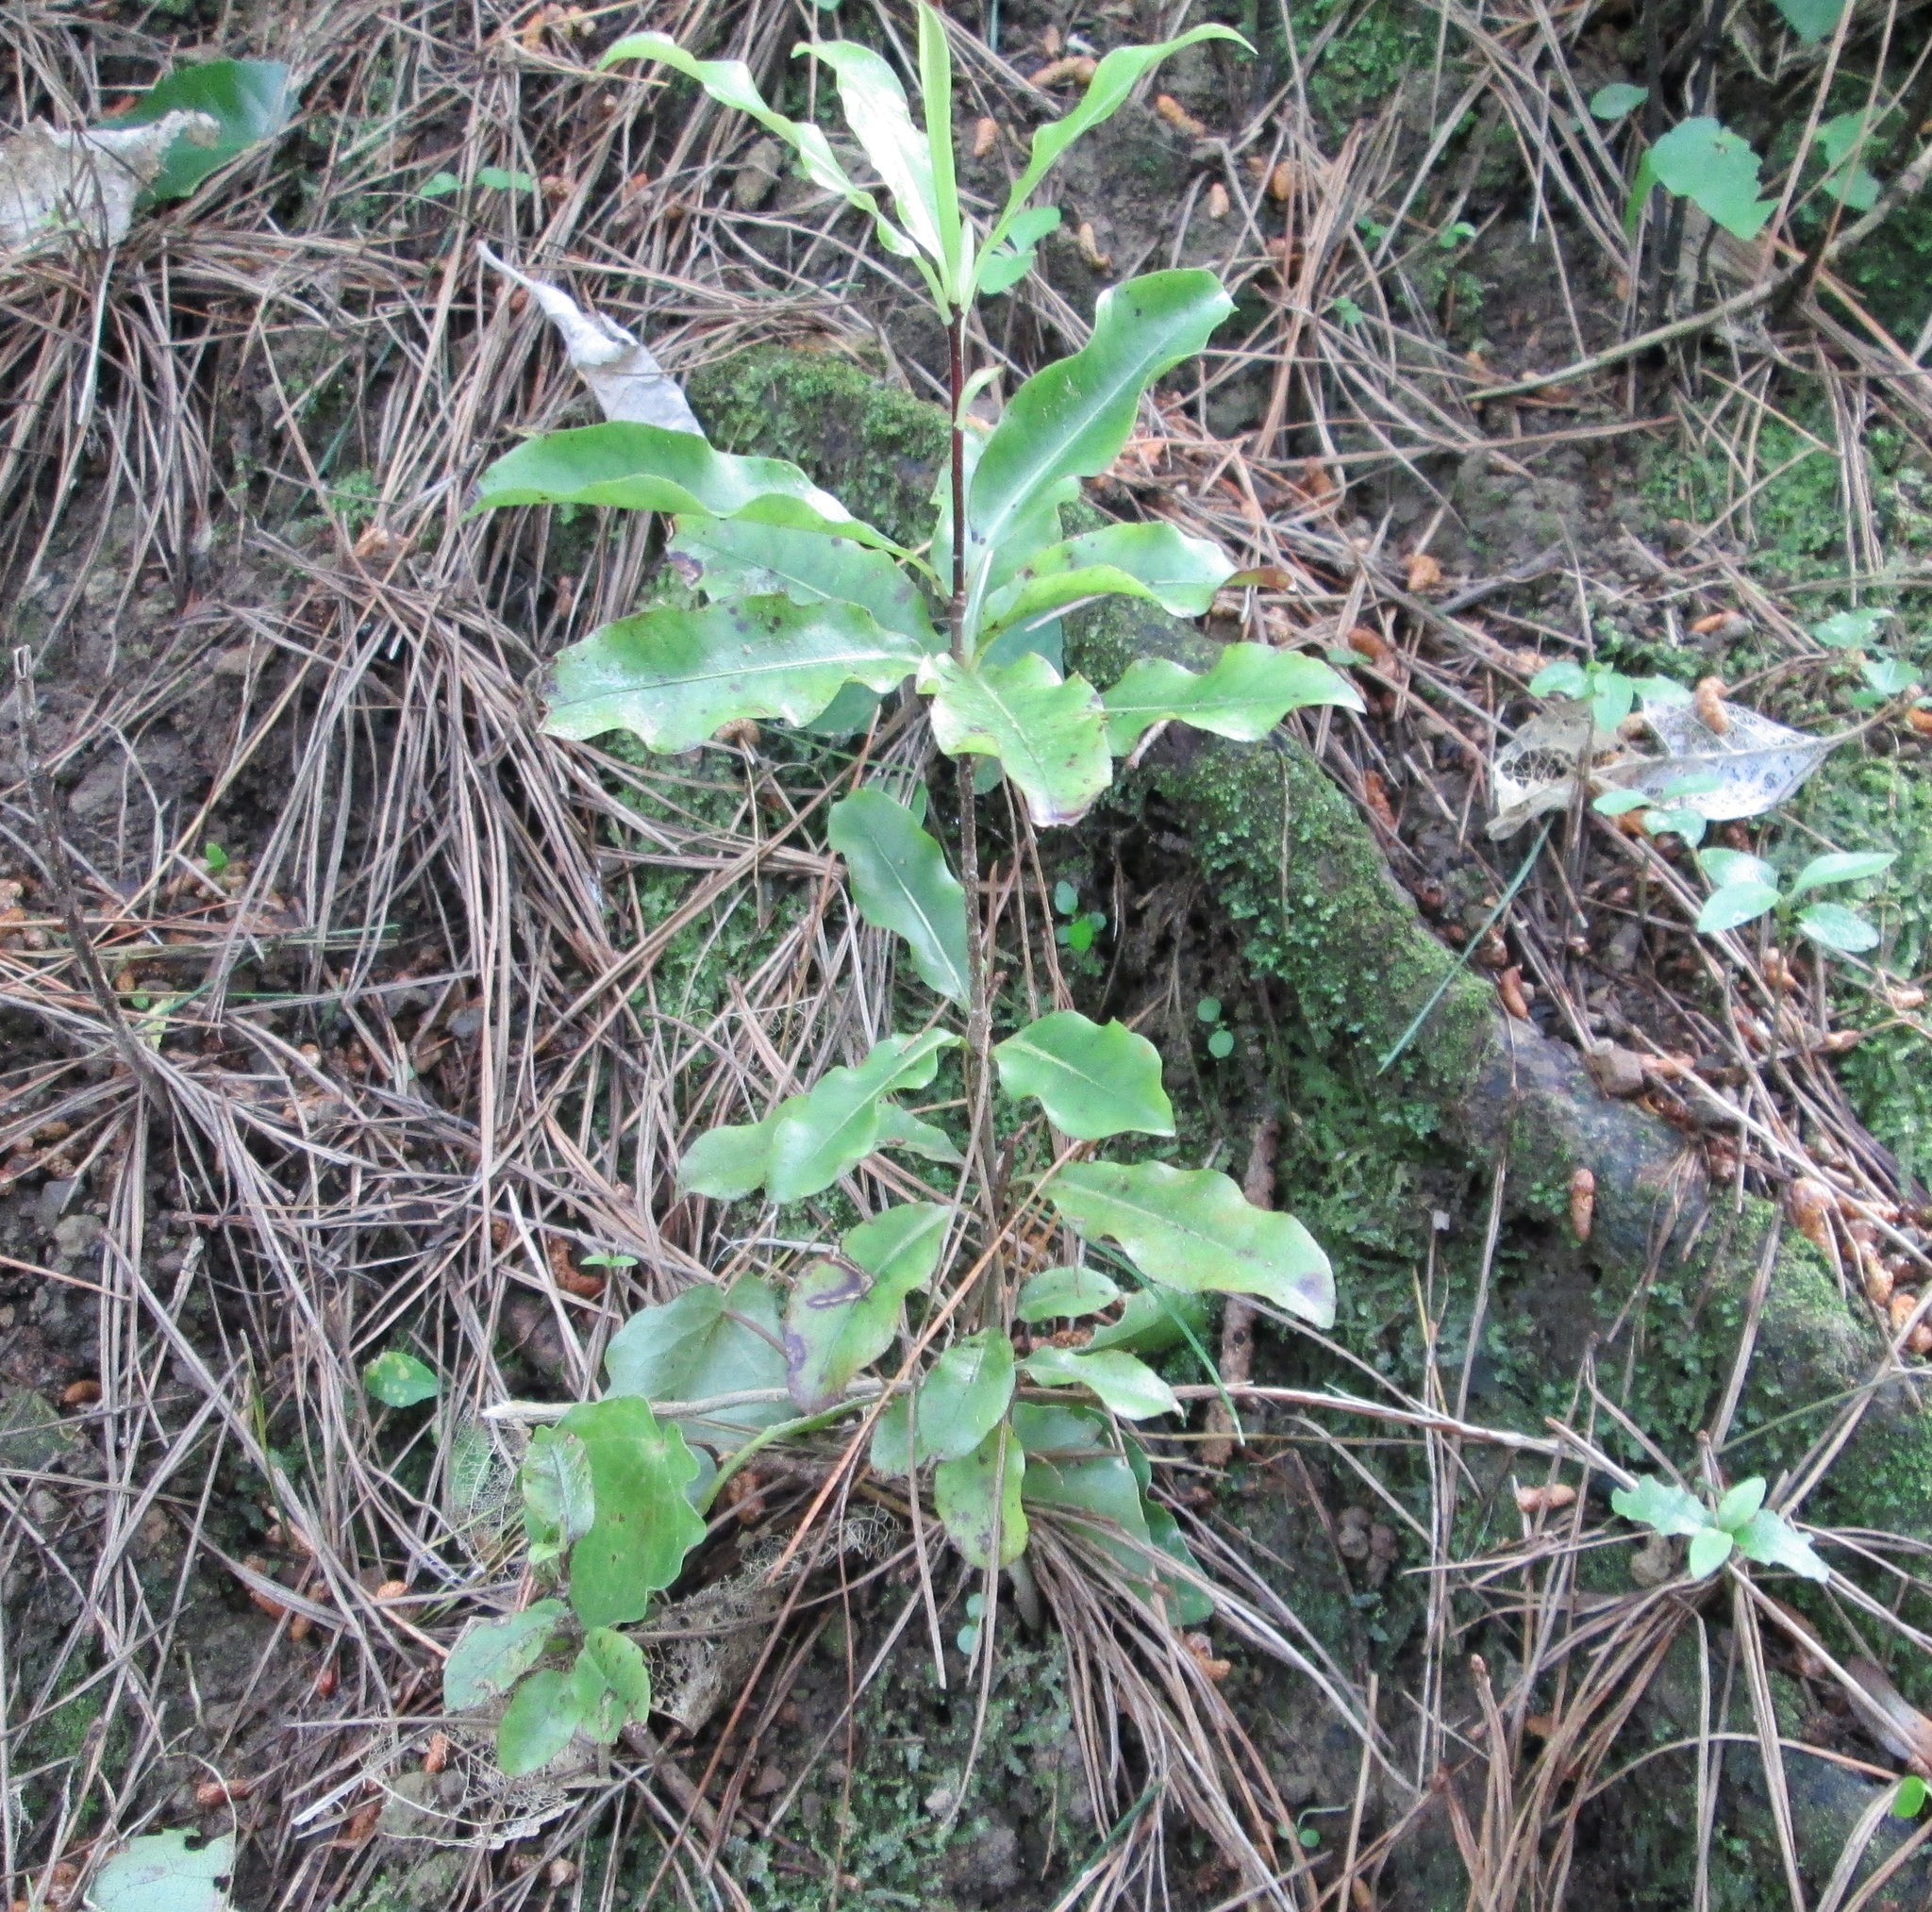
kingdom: Plantae
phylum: Tracheophyta
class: Magnoliopsida
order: Apiales
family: Pittosporaceae
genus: Pittosporum
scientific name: Pittosporum eugenioides
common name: Lemonwood
